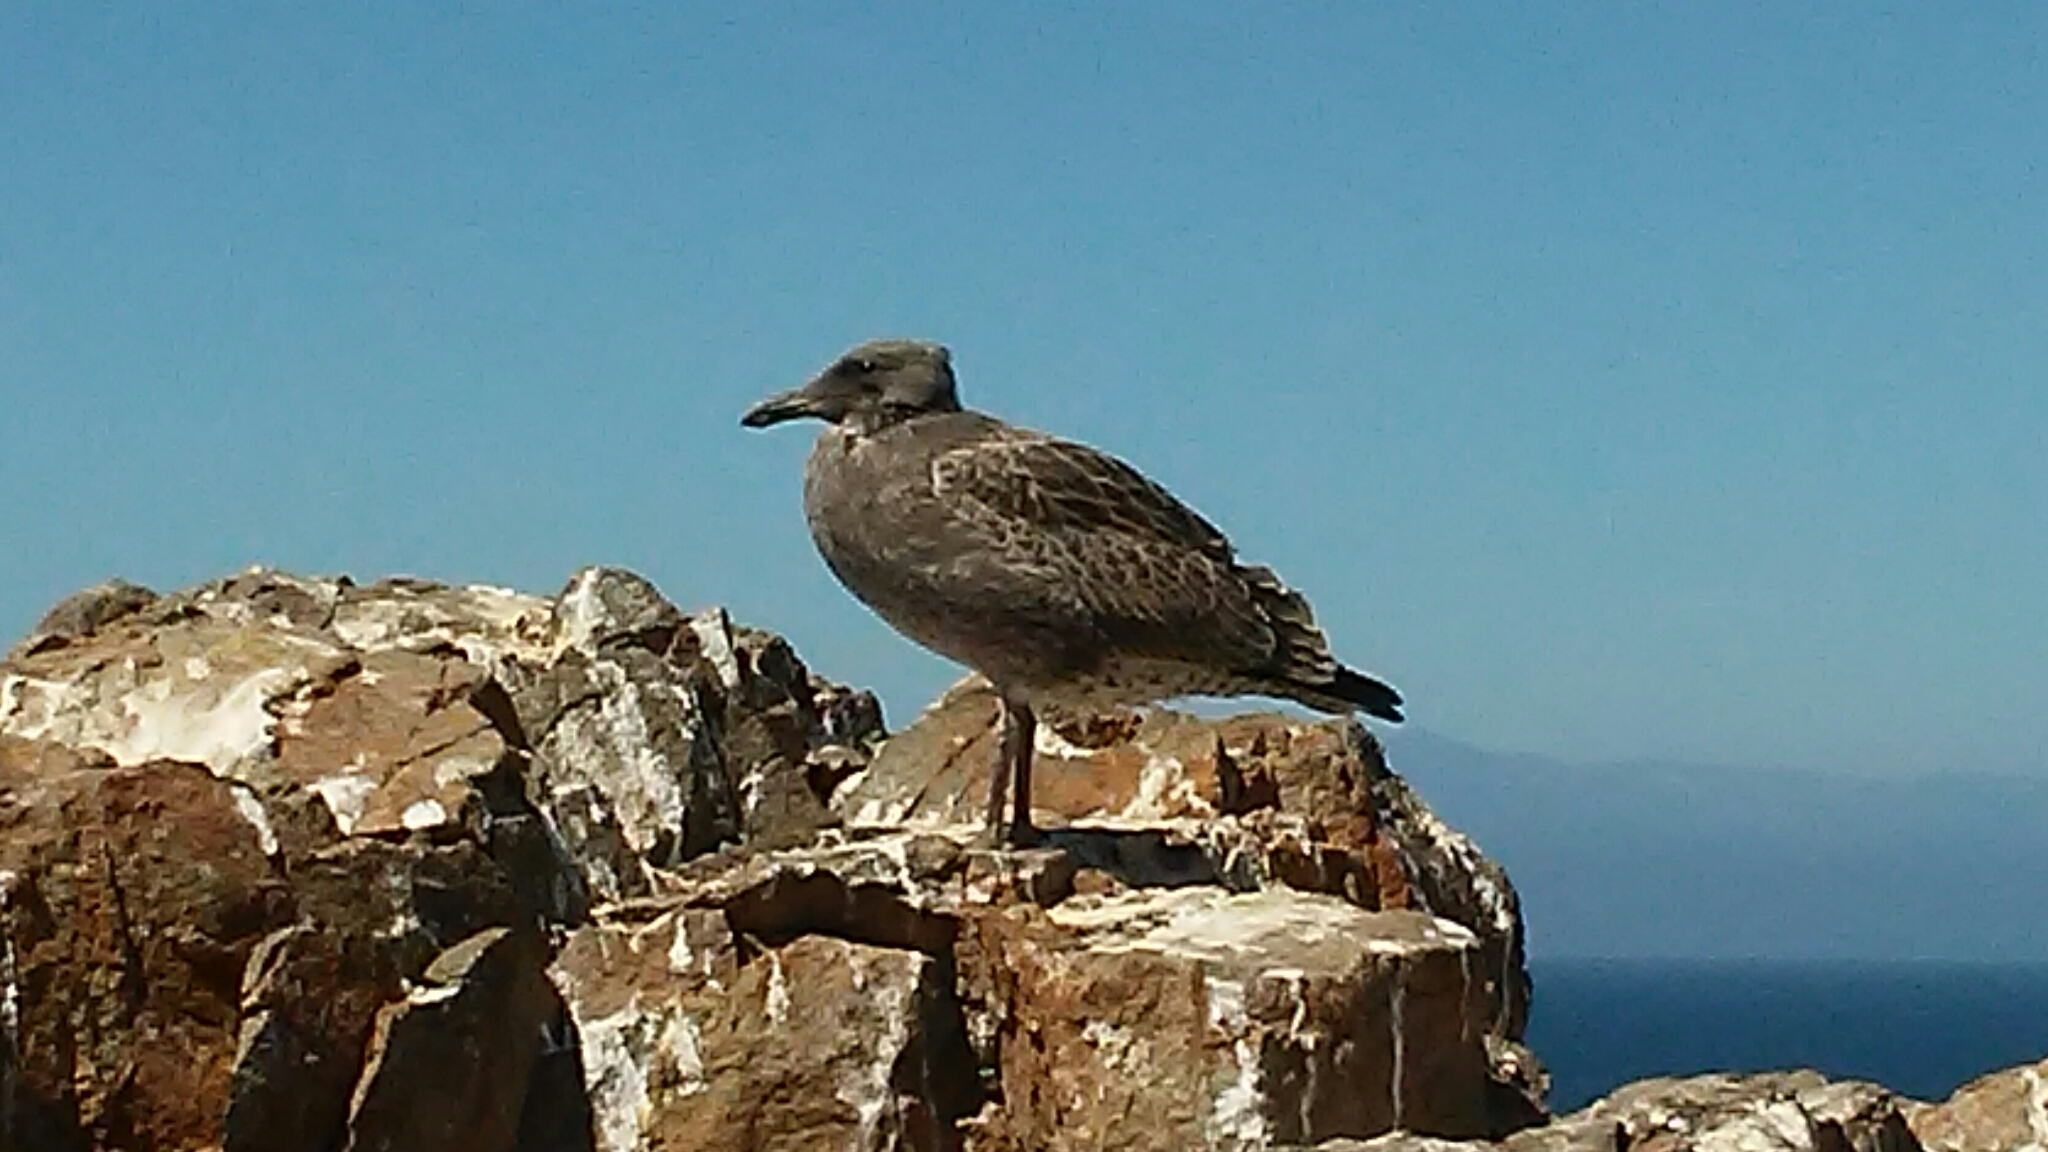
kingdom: Animalia
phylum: Chordata
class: Aves
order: Charadriiformes
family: Laridae
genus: Larus
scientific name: Larus occidentalis
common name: Western gull
